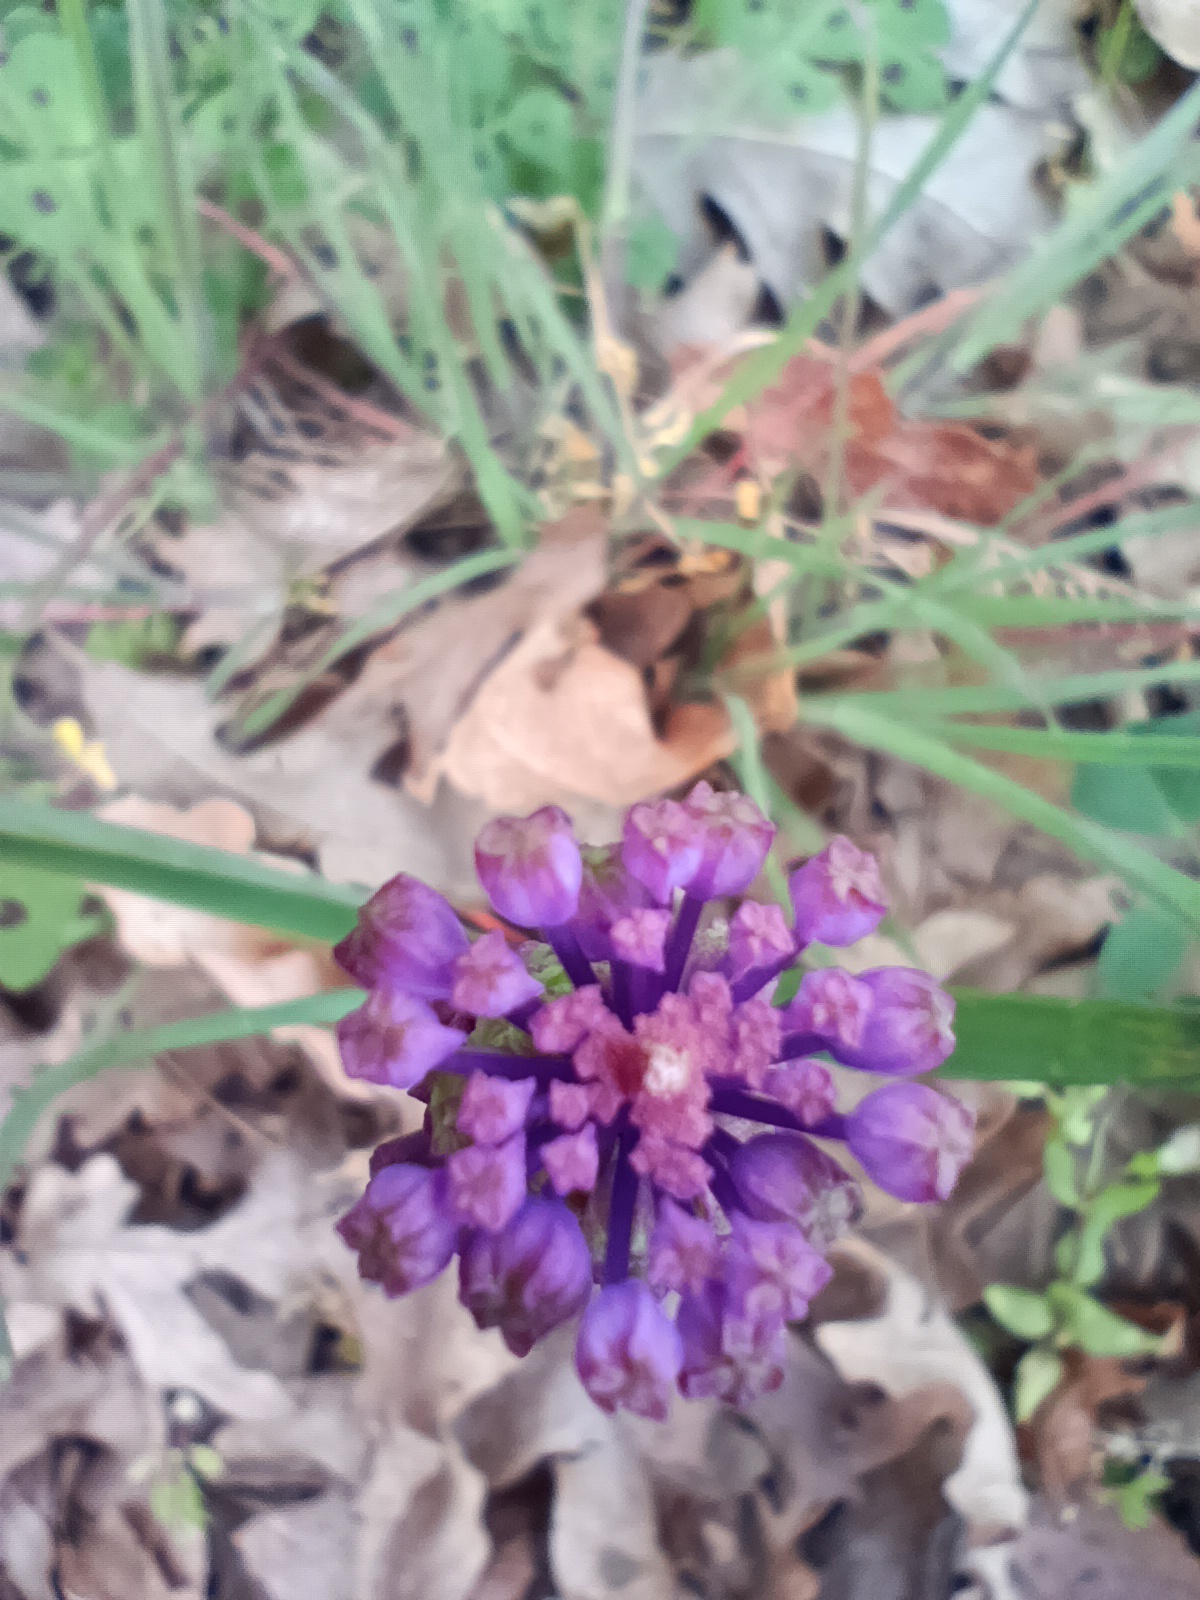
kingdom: Plantae
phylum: Tracheophyta
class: Liliopsida
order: Asparagales
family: Asparagaceae
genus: Muscari
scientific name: Muscari comosum
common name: Tassel hyacinth
